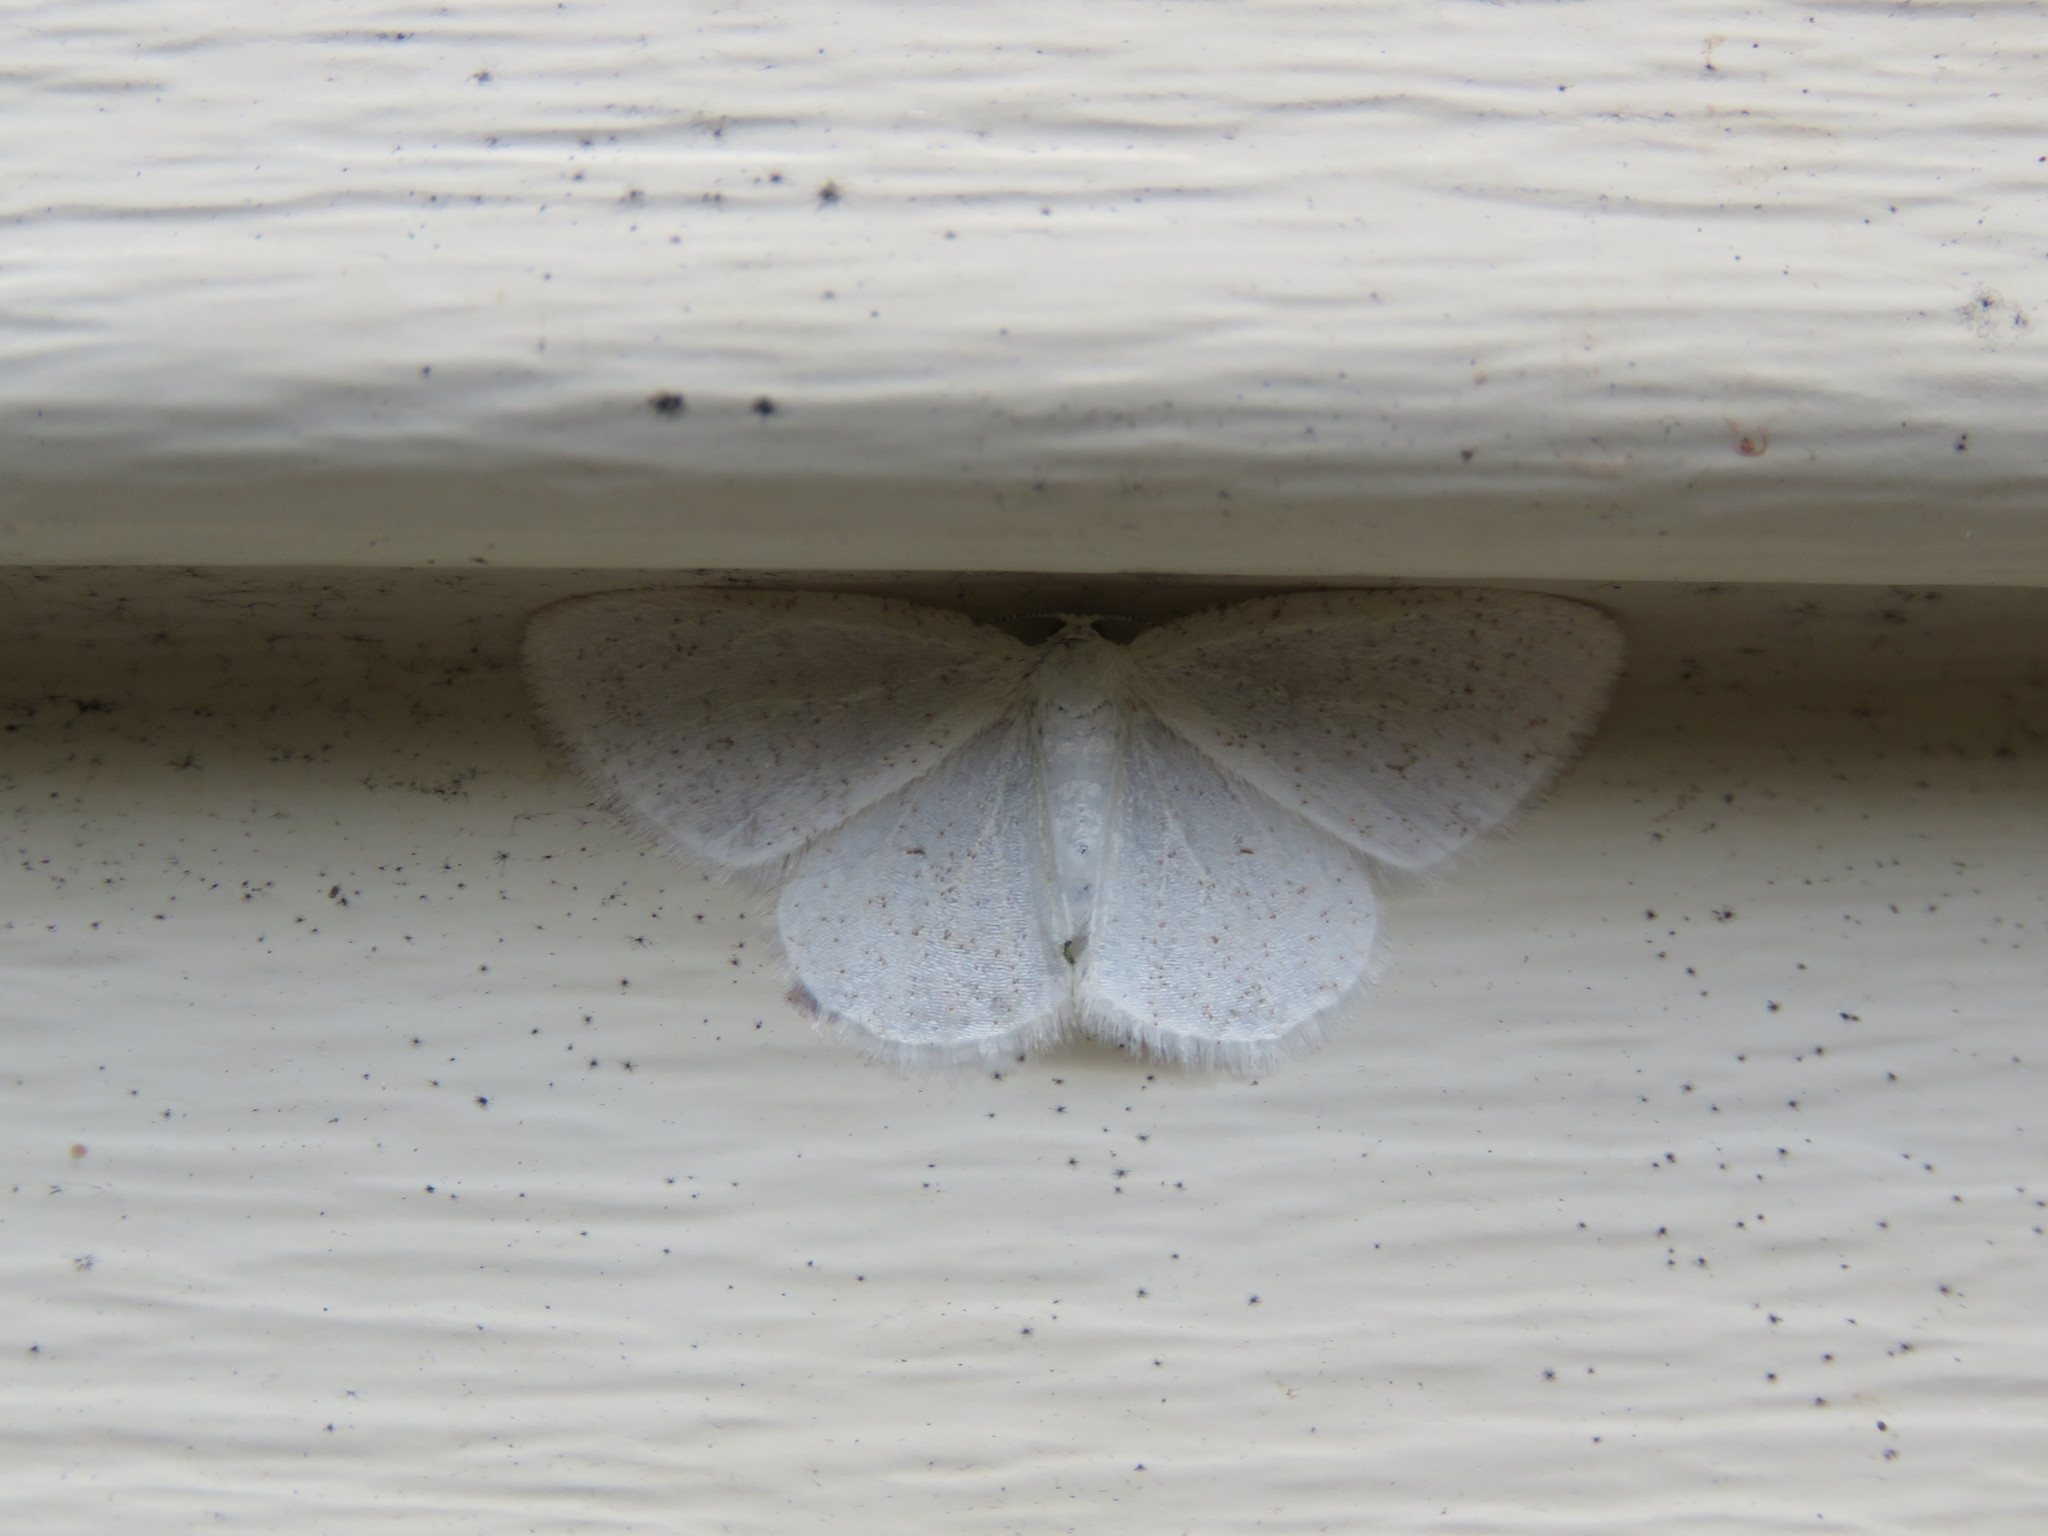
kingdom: Animalia
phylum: Arthropoda
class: Insecta
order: Lepidoptera
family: Geometridae
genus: Protitame
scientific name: Protitame virginalis
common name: Virgin moth
